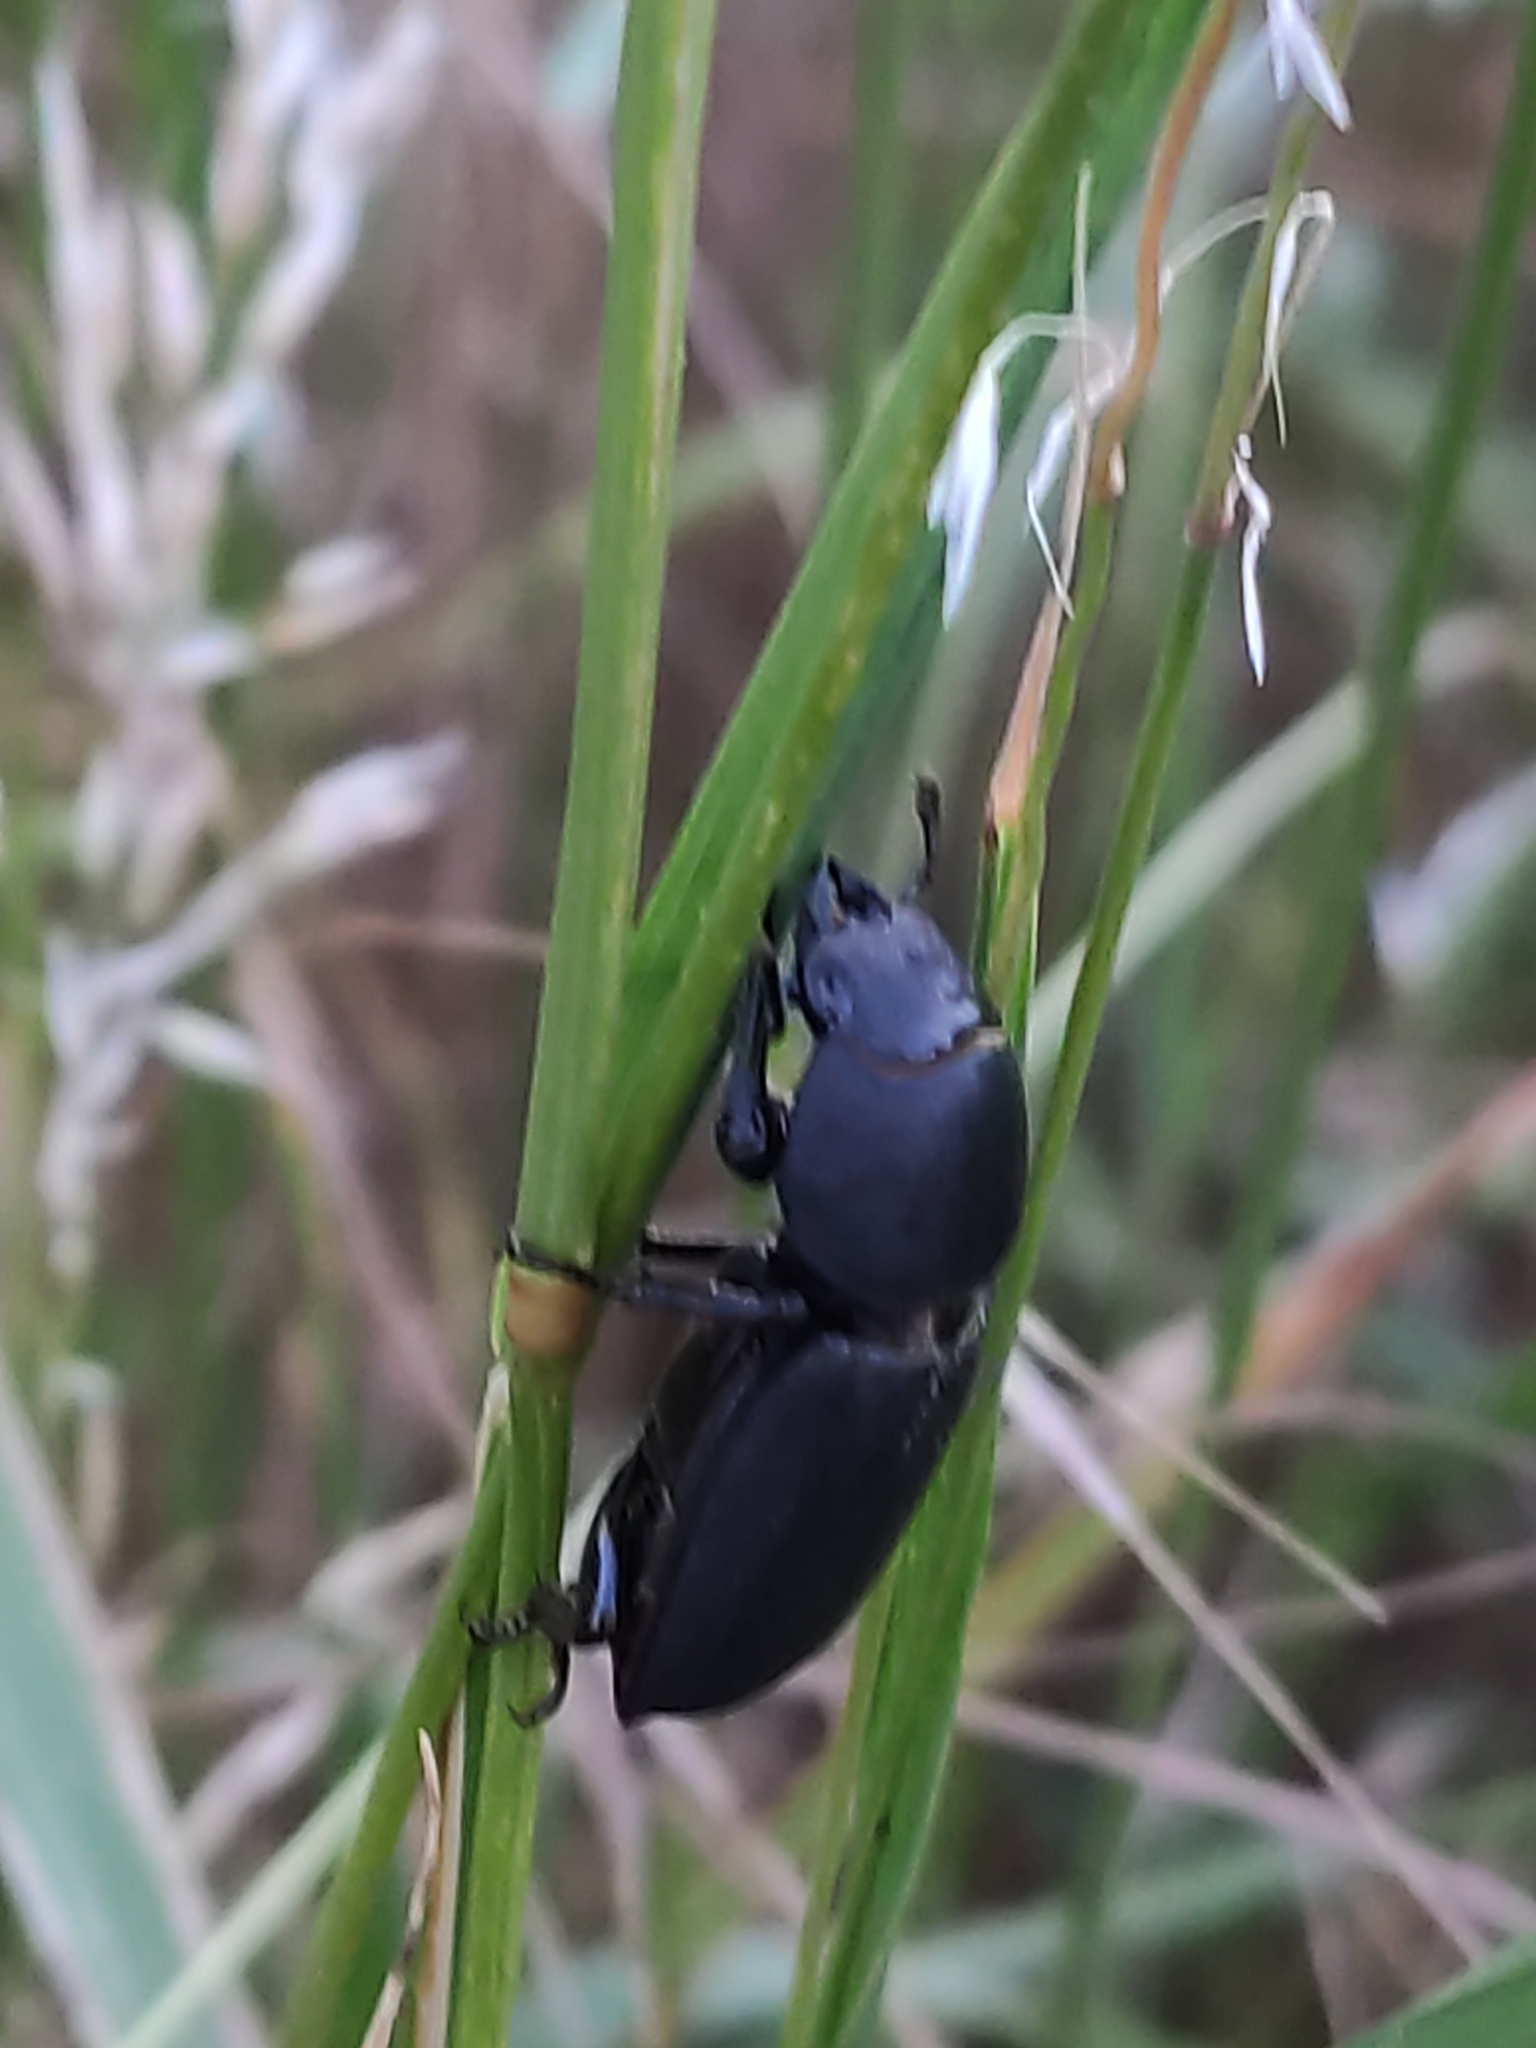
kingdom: Animalia
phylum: Arthropoda
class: Insecta
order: Coleoptera
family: Lucanidae
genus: Dorcus
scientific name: Dorcus parallelipipedus
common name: Lesser stag beetle
